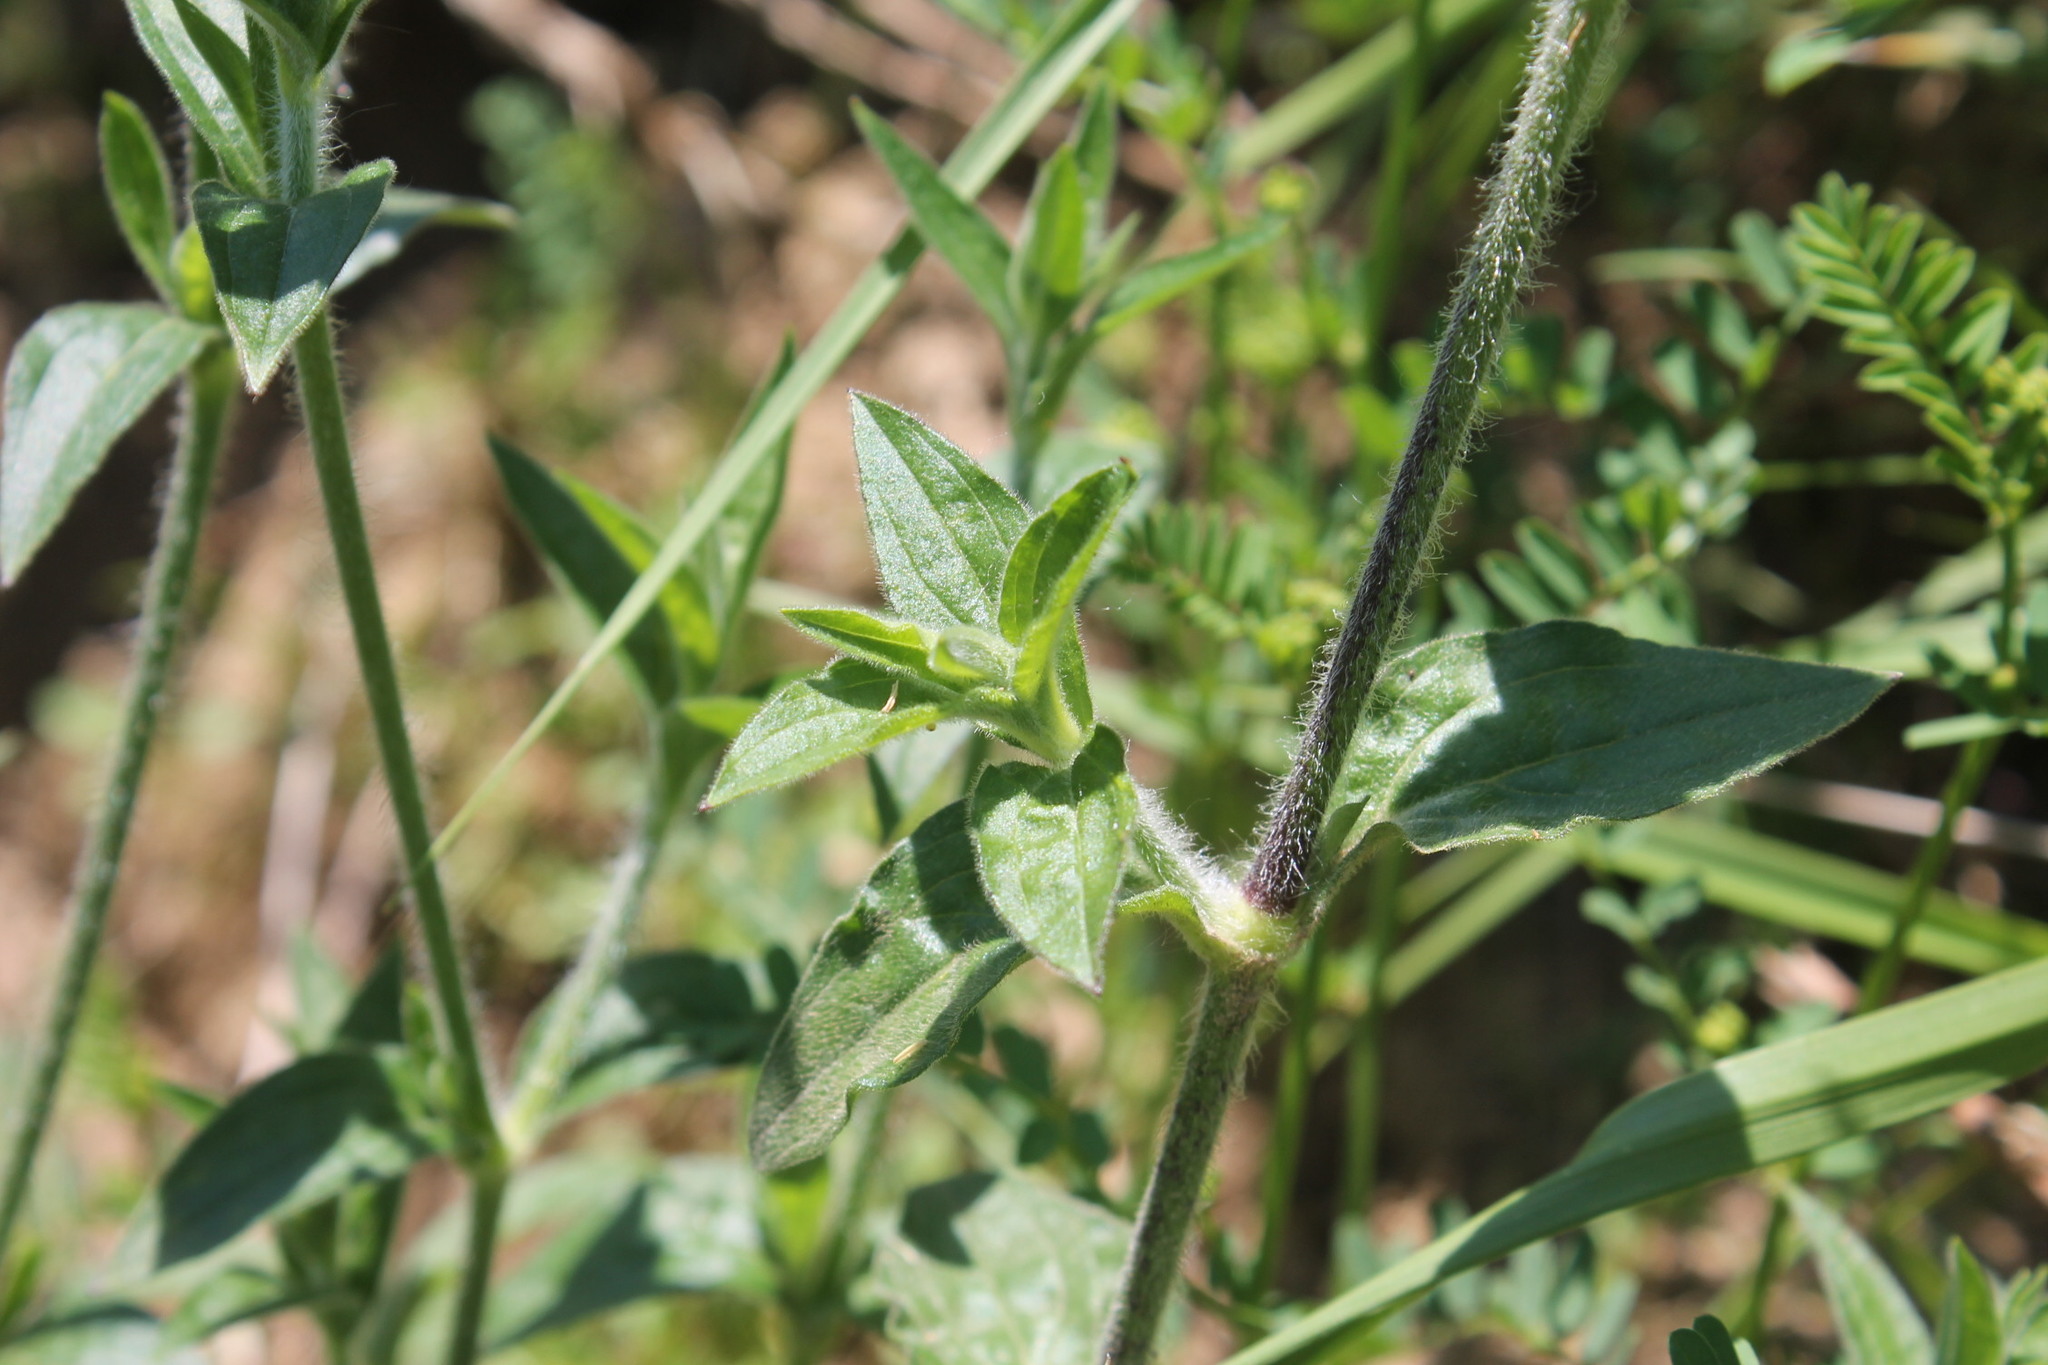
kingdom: Plantae
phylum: Tracheophyta
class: Magnoliopsida
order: Caryophyllales
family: Caryophyllaceae
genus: Silene
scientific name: Silene latifolia
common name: White campion
